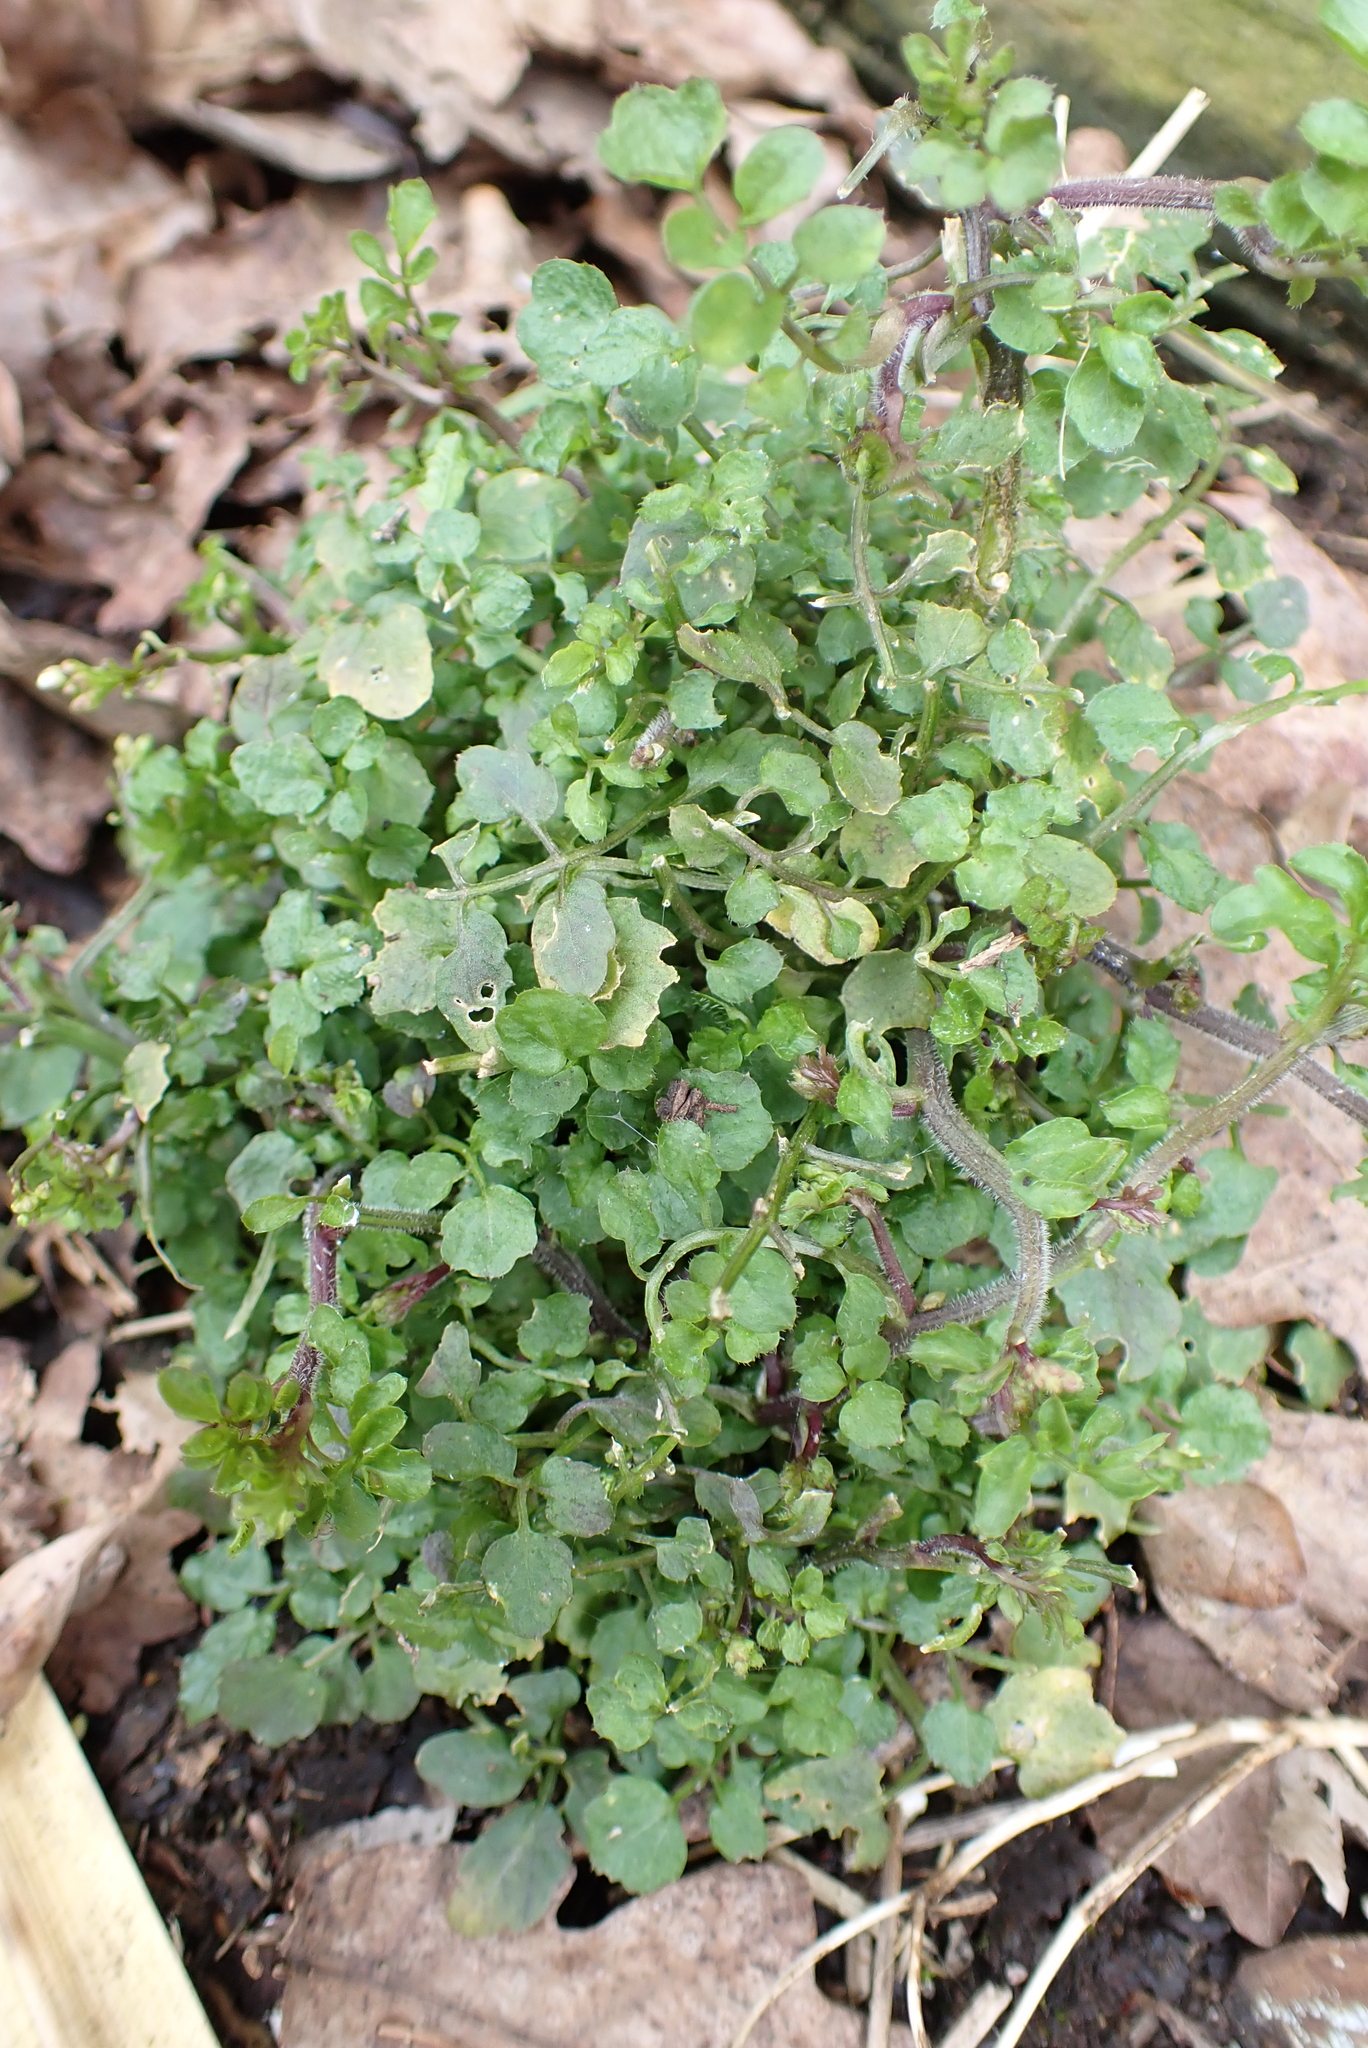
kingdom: Plantae
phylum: Tracheophyta
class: Magnoliopsida
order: Brassicales
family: Brassicaceae
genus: Cardamine
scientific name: Cardamine hirsuta
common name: Hairy bittercress
